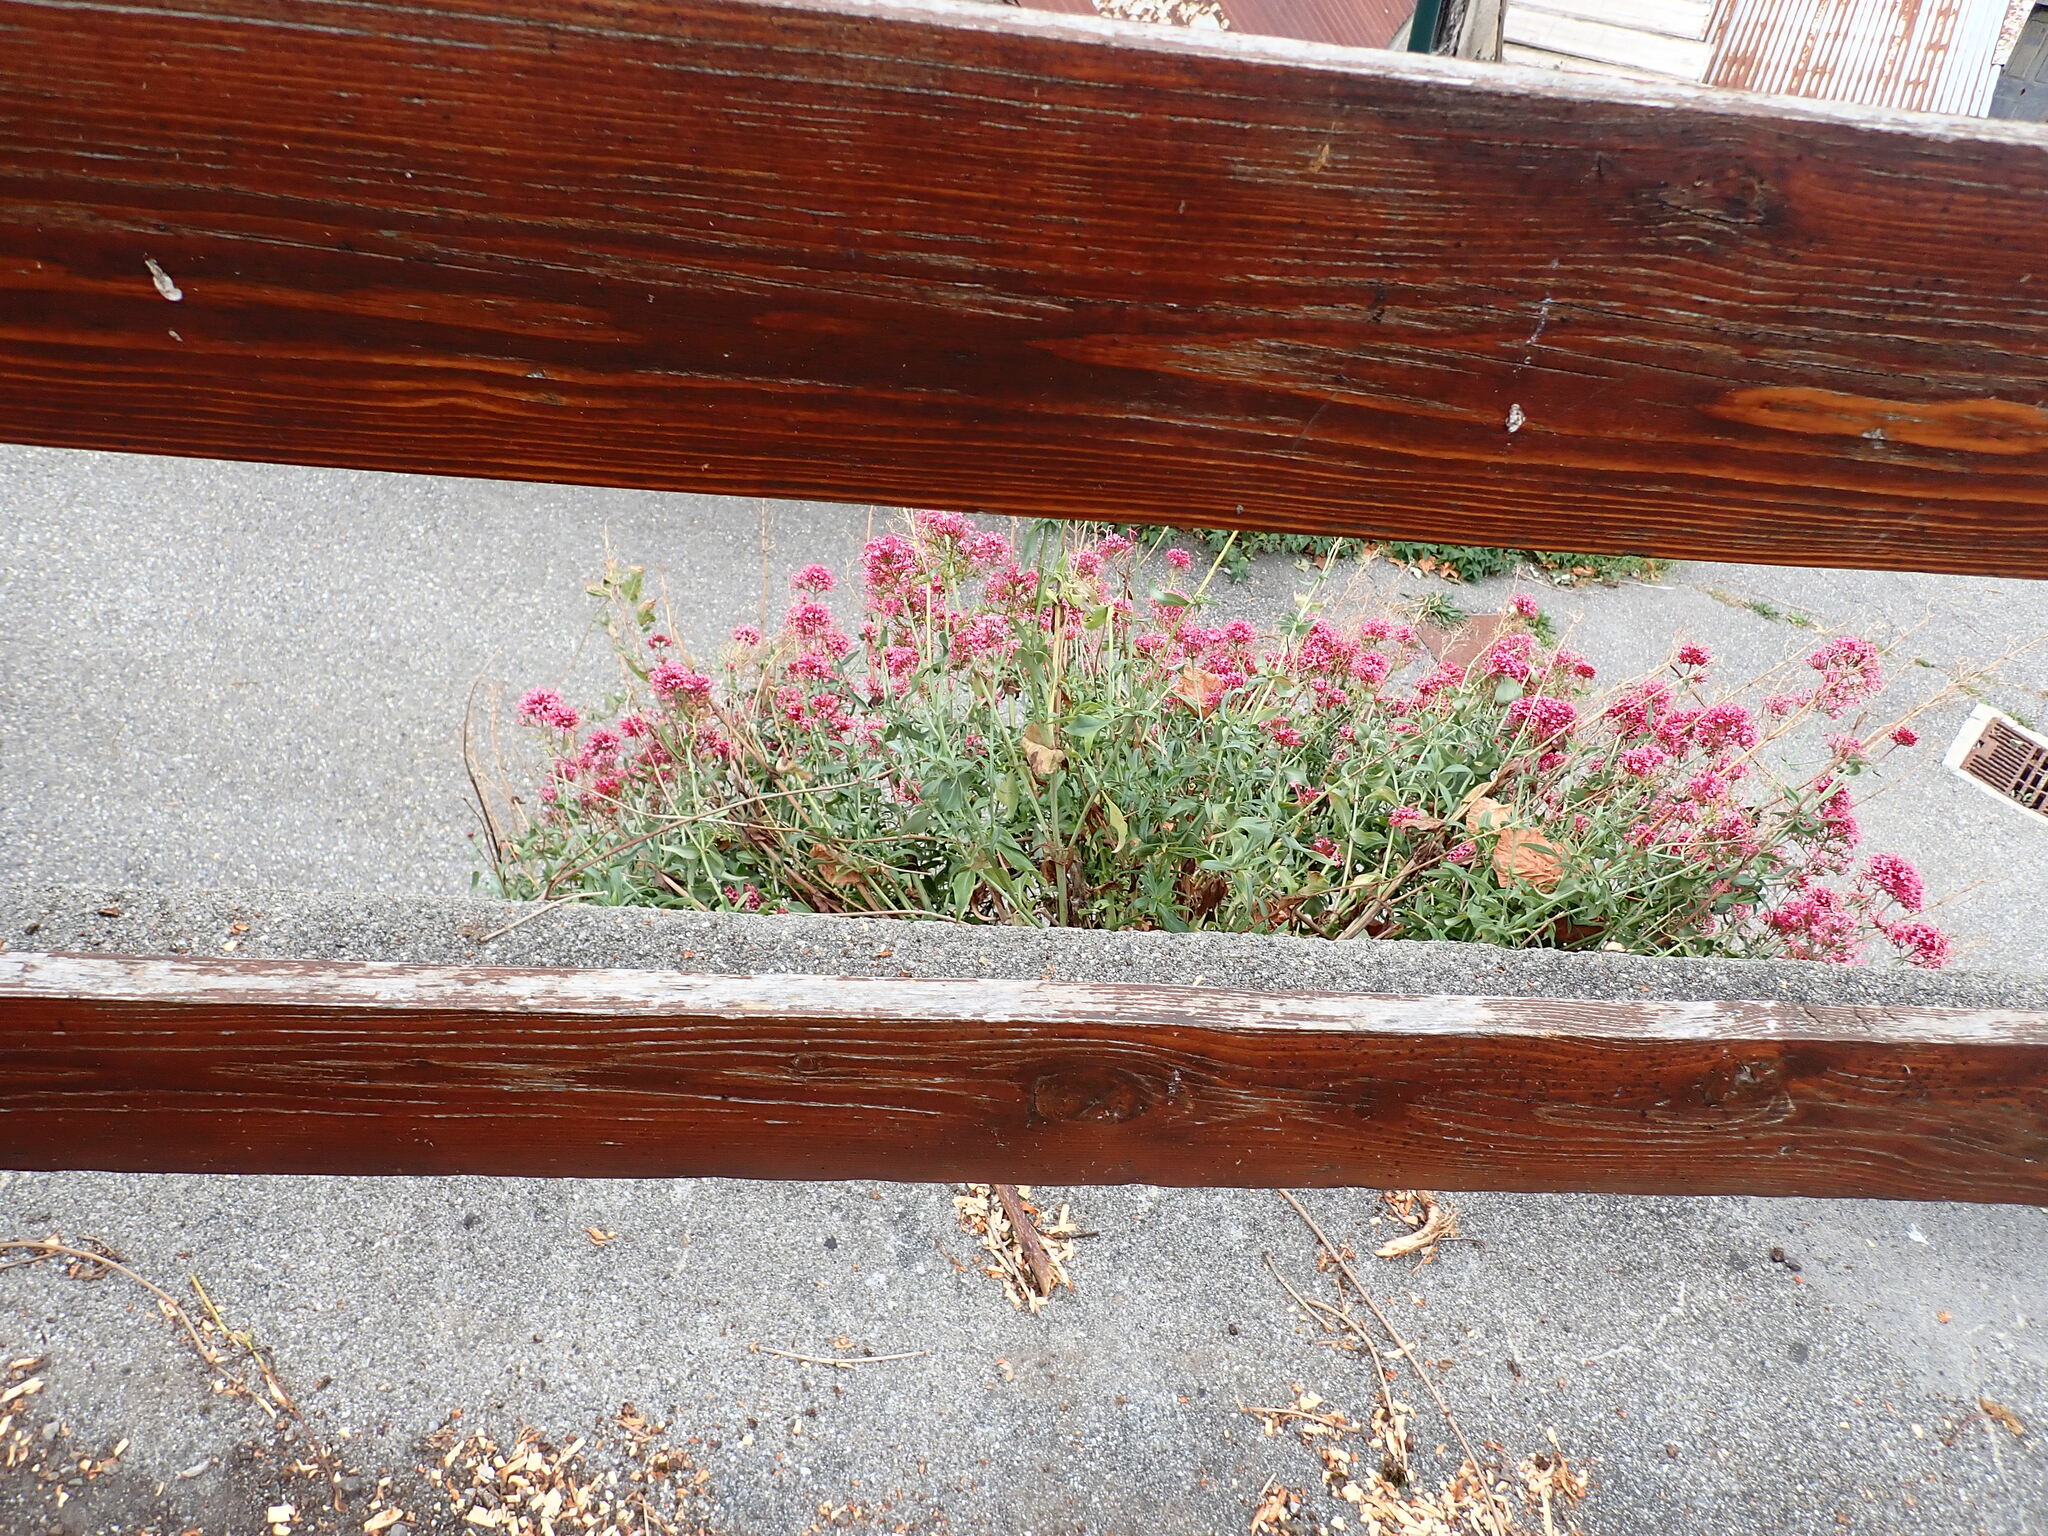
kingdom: Plantae
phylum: Tracheophyta
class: Magnoliopsida
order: Dipsacales
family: Caprifoliaceae
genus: Centranthus
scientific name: Centranthus ruber
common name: Red valerian
